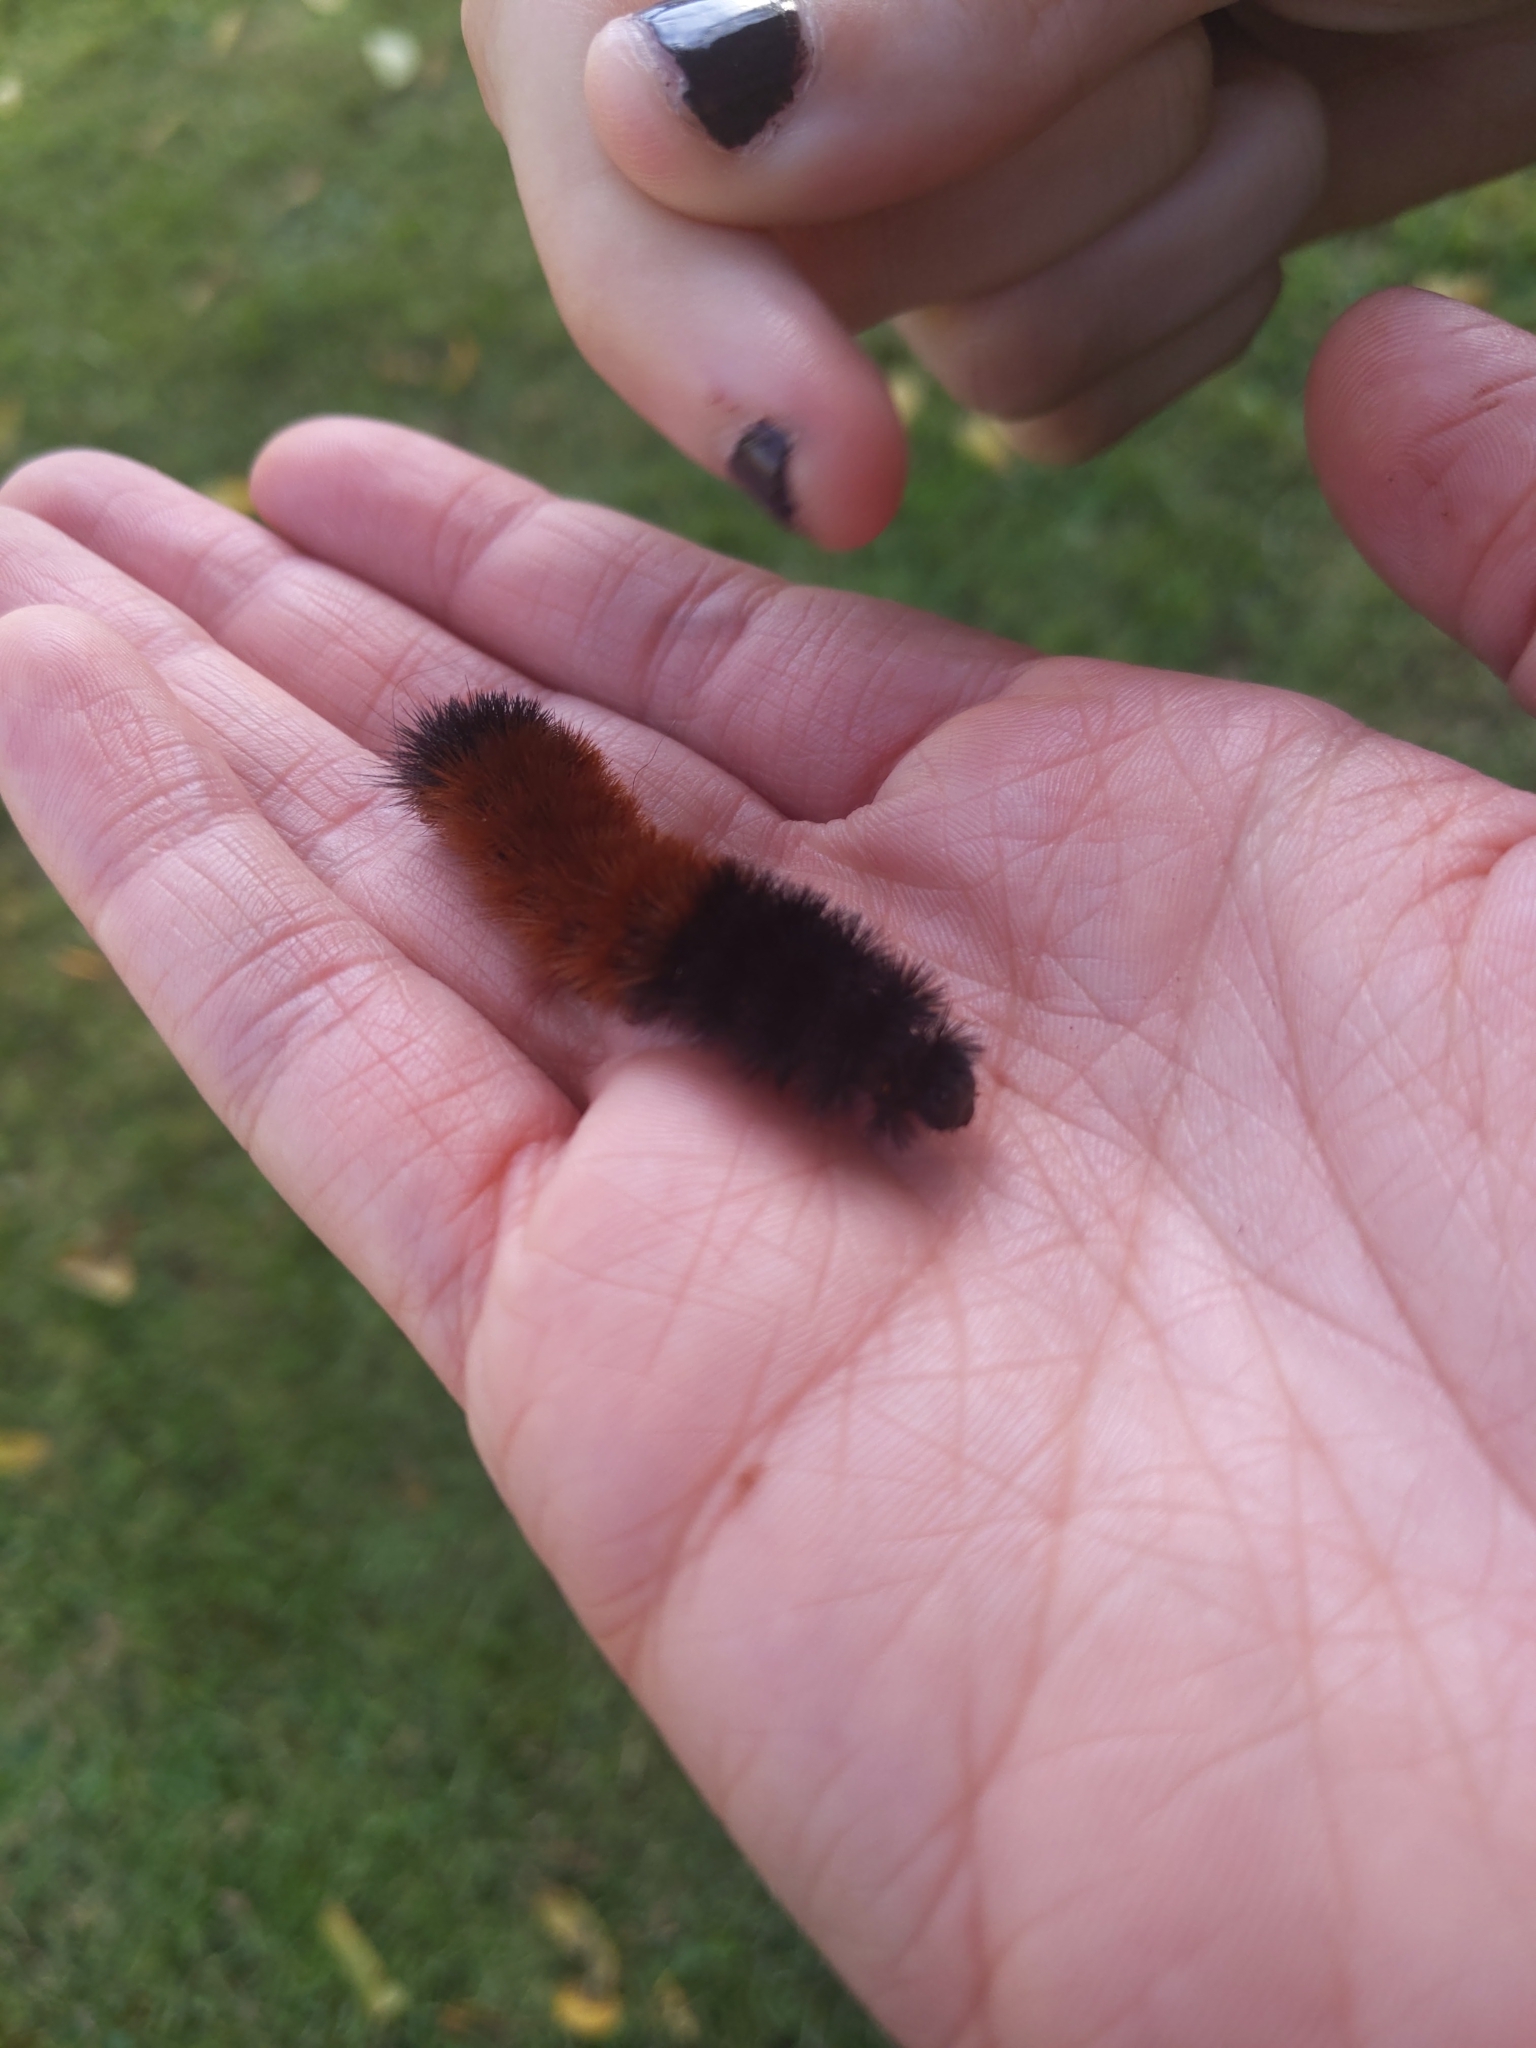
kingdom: Animalia
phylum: Arthropoda
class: Insecta
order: Lepidoptera
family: Erebidae
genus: Pyrrharctia
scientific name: Pyrrharctia isabella
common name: Isabella tiger moth
